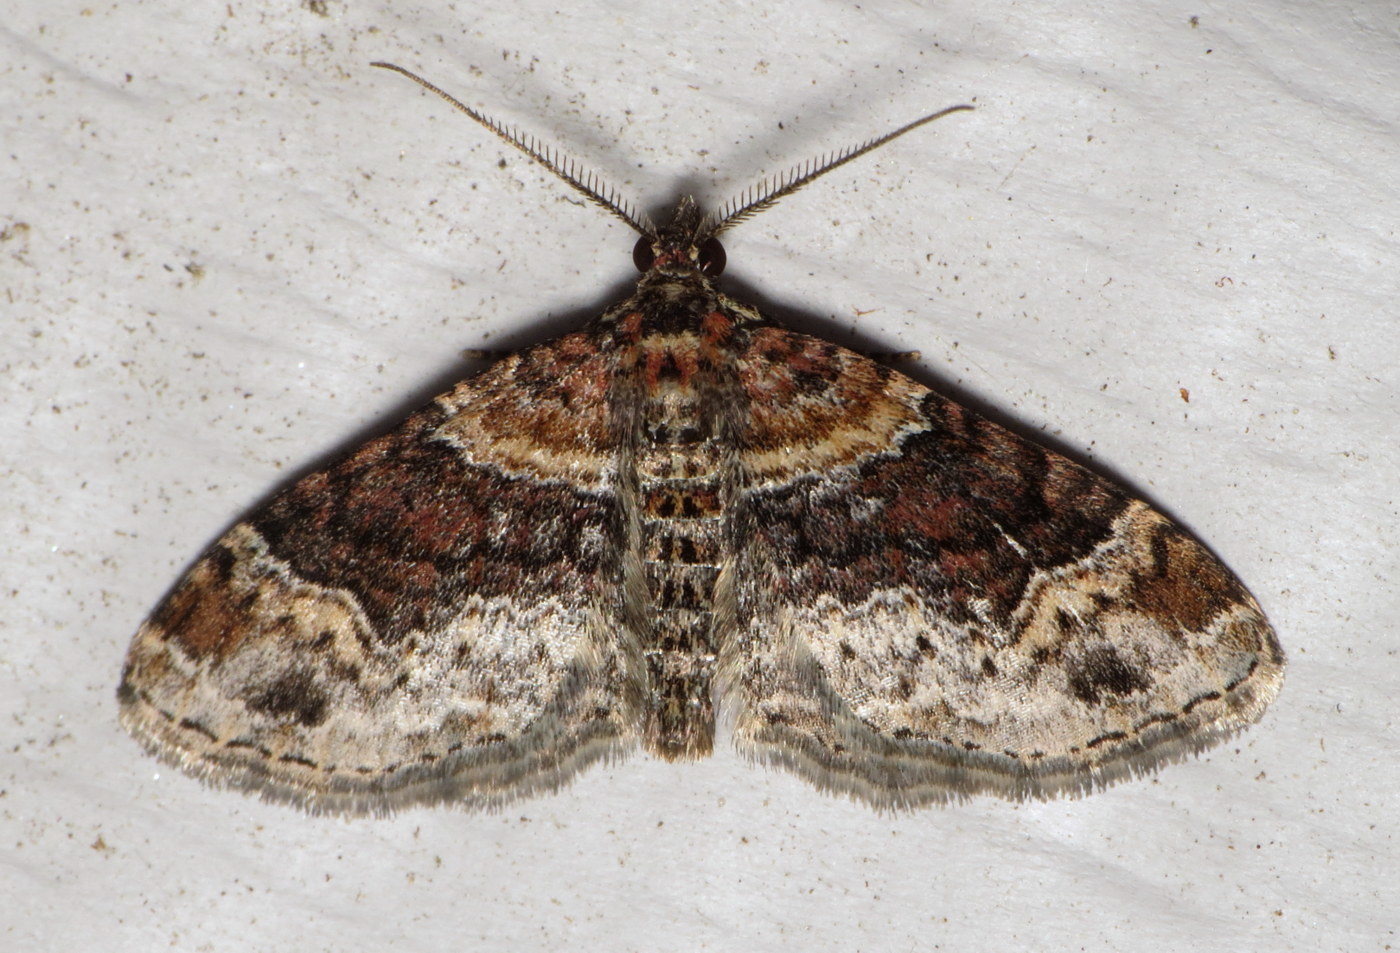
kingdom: Animalia
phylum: Arthropoda
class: Insecta
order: Lepidoptera
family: Geometridae
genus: Xanthorhoe
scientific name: Xanthorhoe ferrugata
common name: Dark-barred twin-spot carpet
